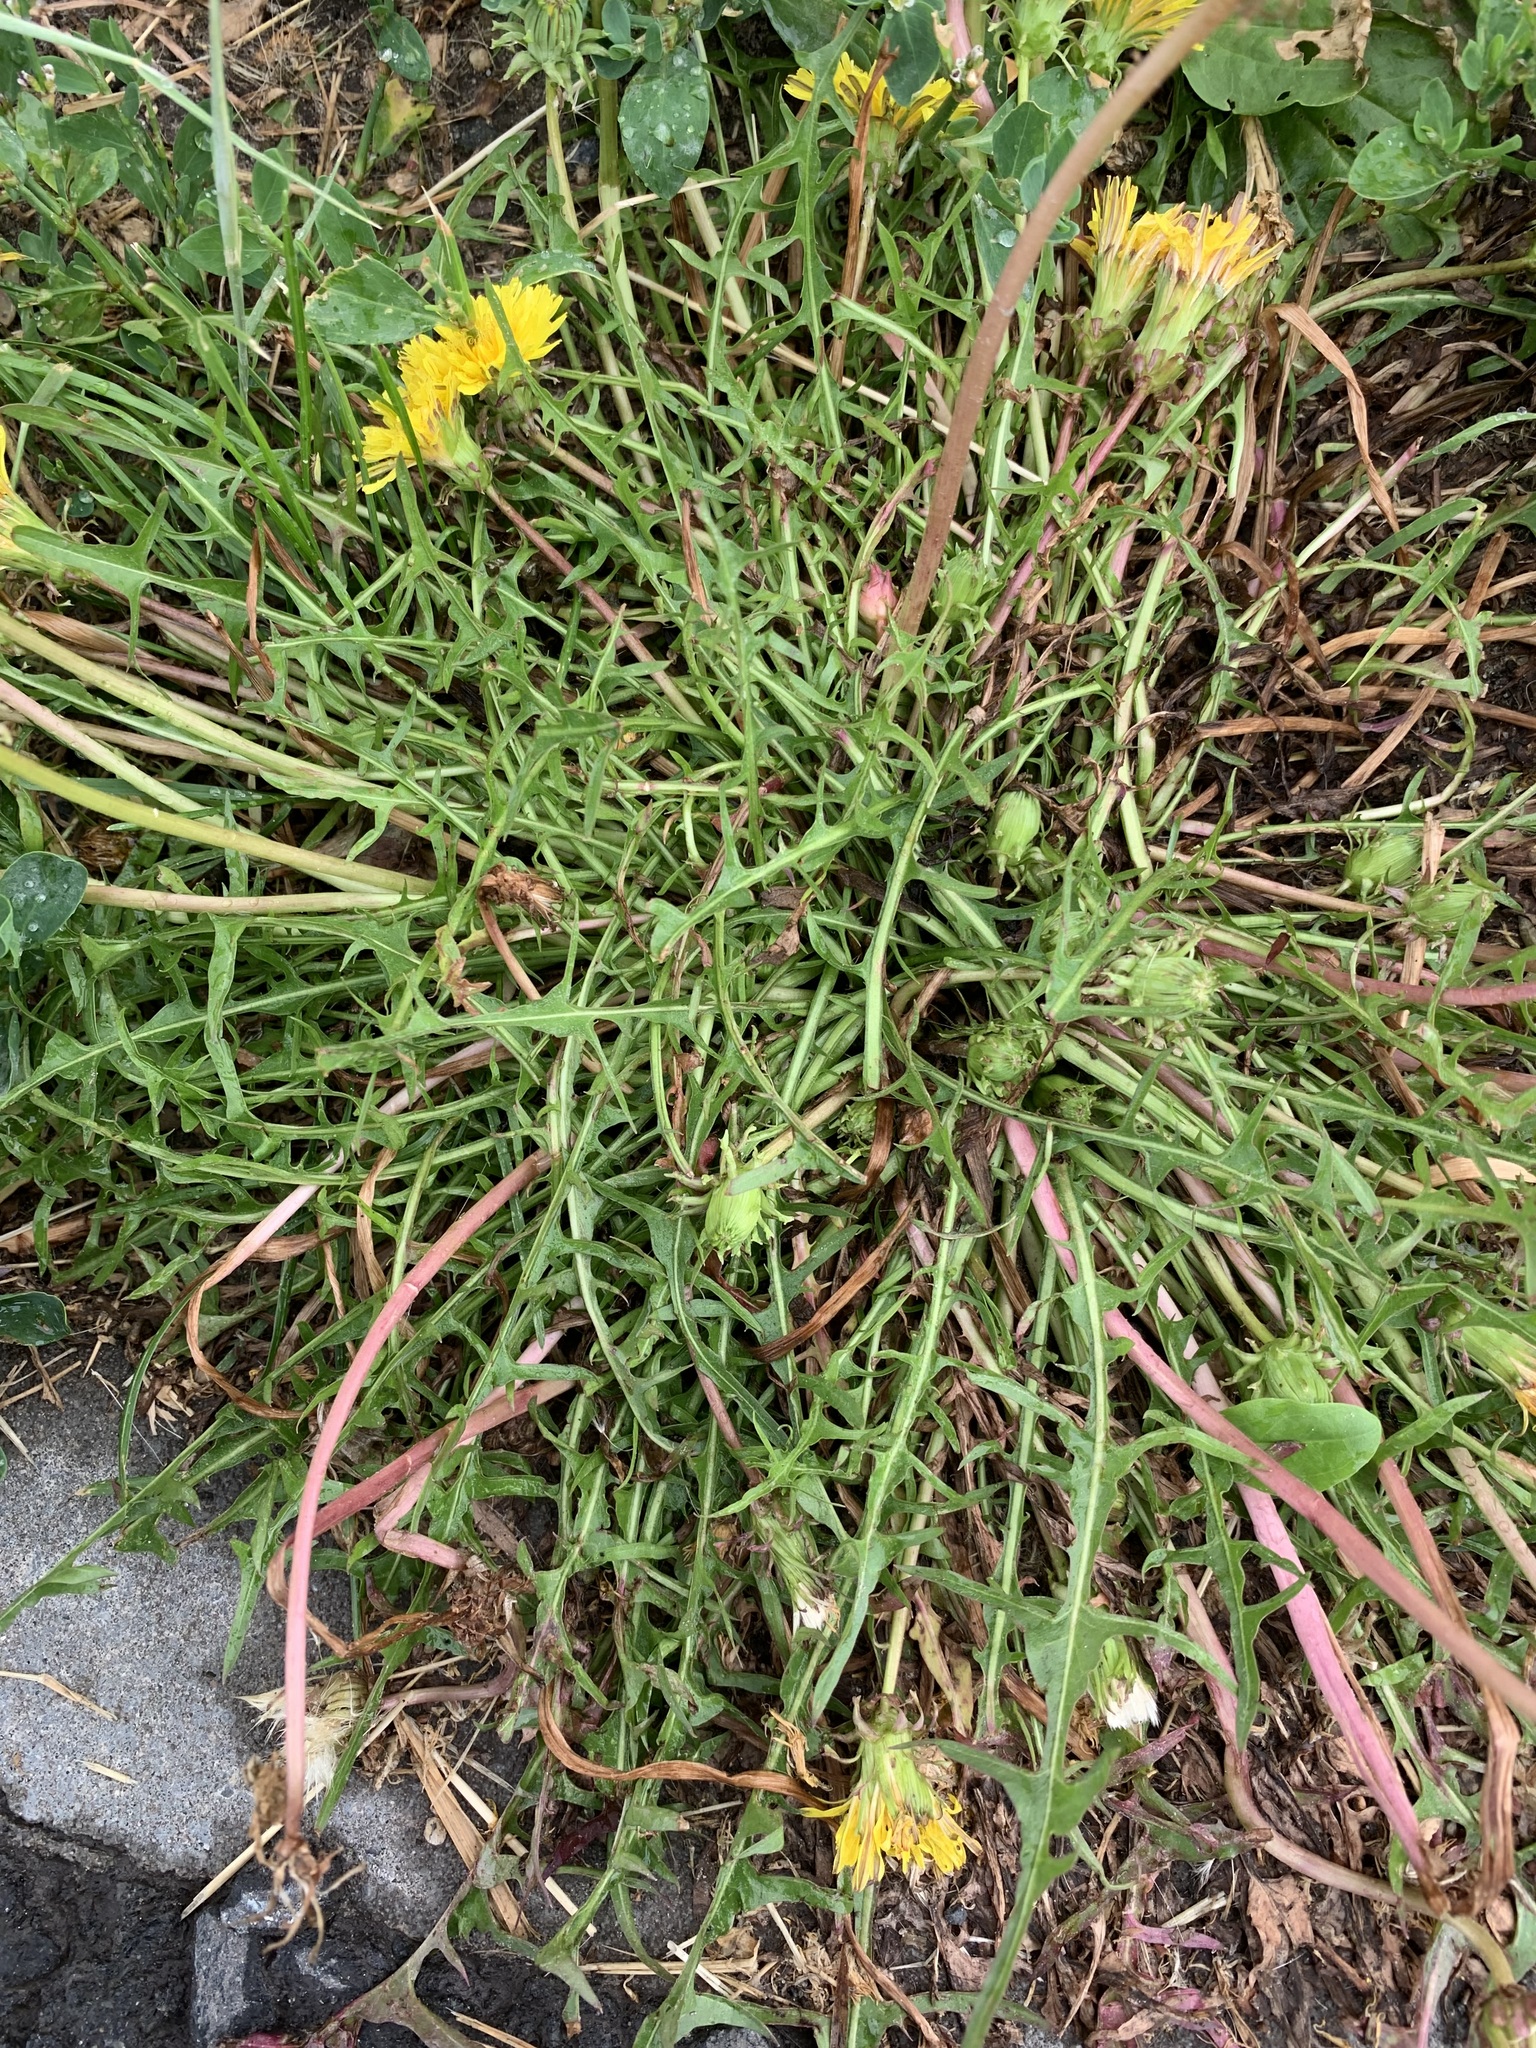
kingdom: Plantae
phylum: Tracheophyta
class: Magnoliopsida
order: Asterales
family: Asteraceae
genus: Taraxacum
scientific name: Taraxacum scariosum
